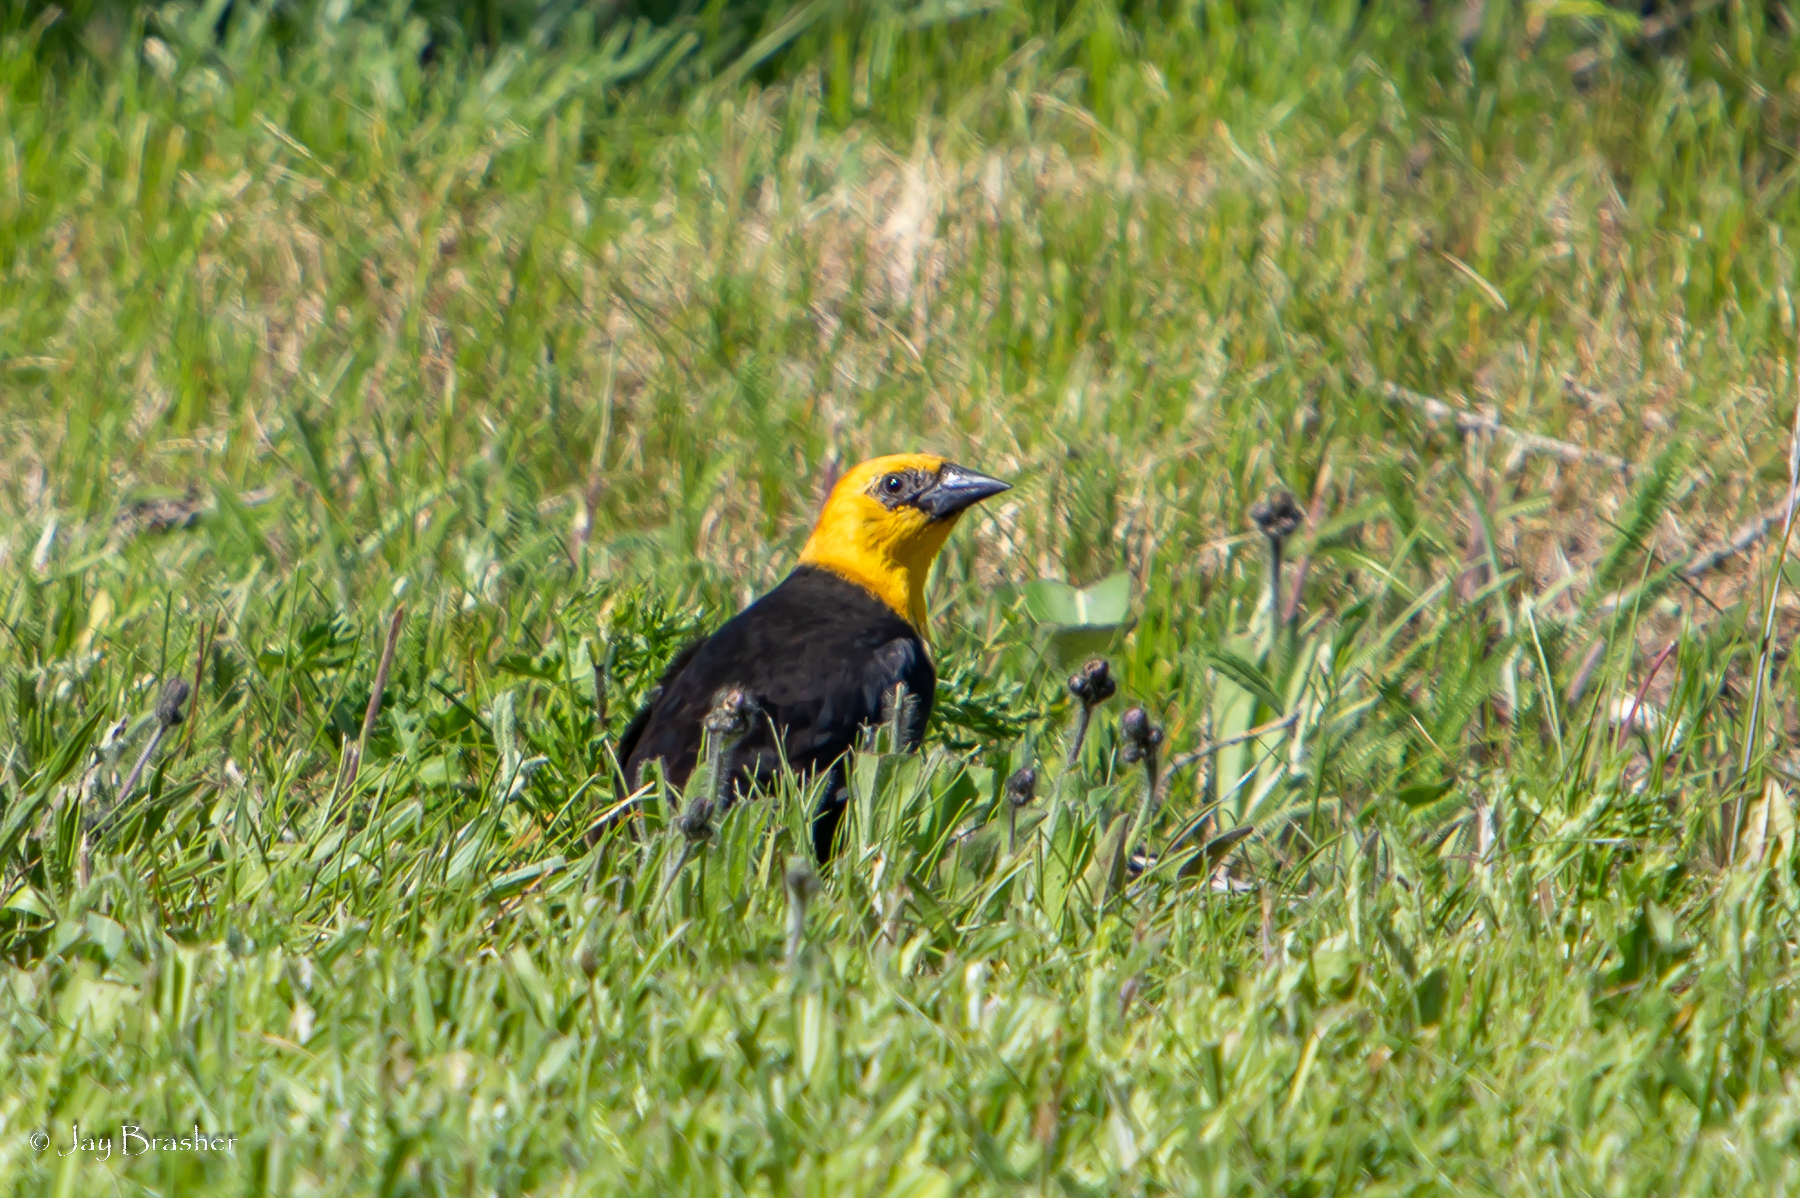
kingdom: Animalia
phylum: Chordata
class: Aves
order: Passeriformes
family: Icteridae
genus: Xanthocephalus
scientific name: Xanthocephalus xanthocephalus
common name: Yellow-headed blackbird
